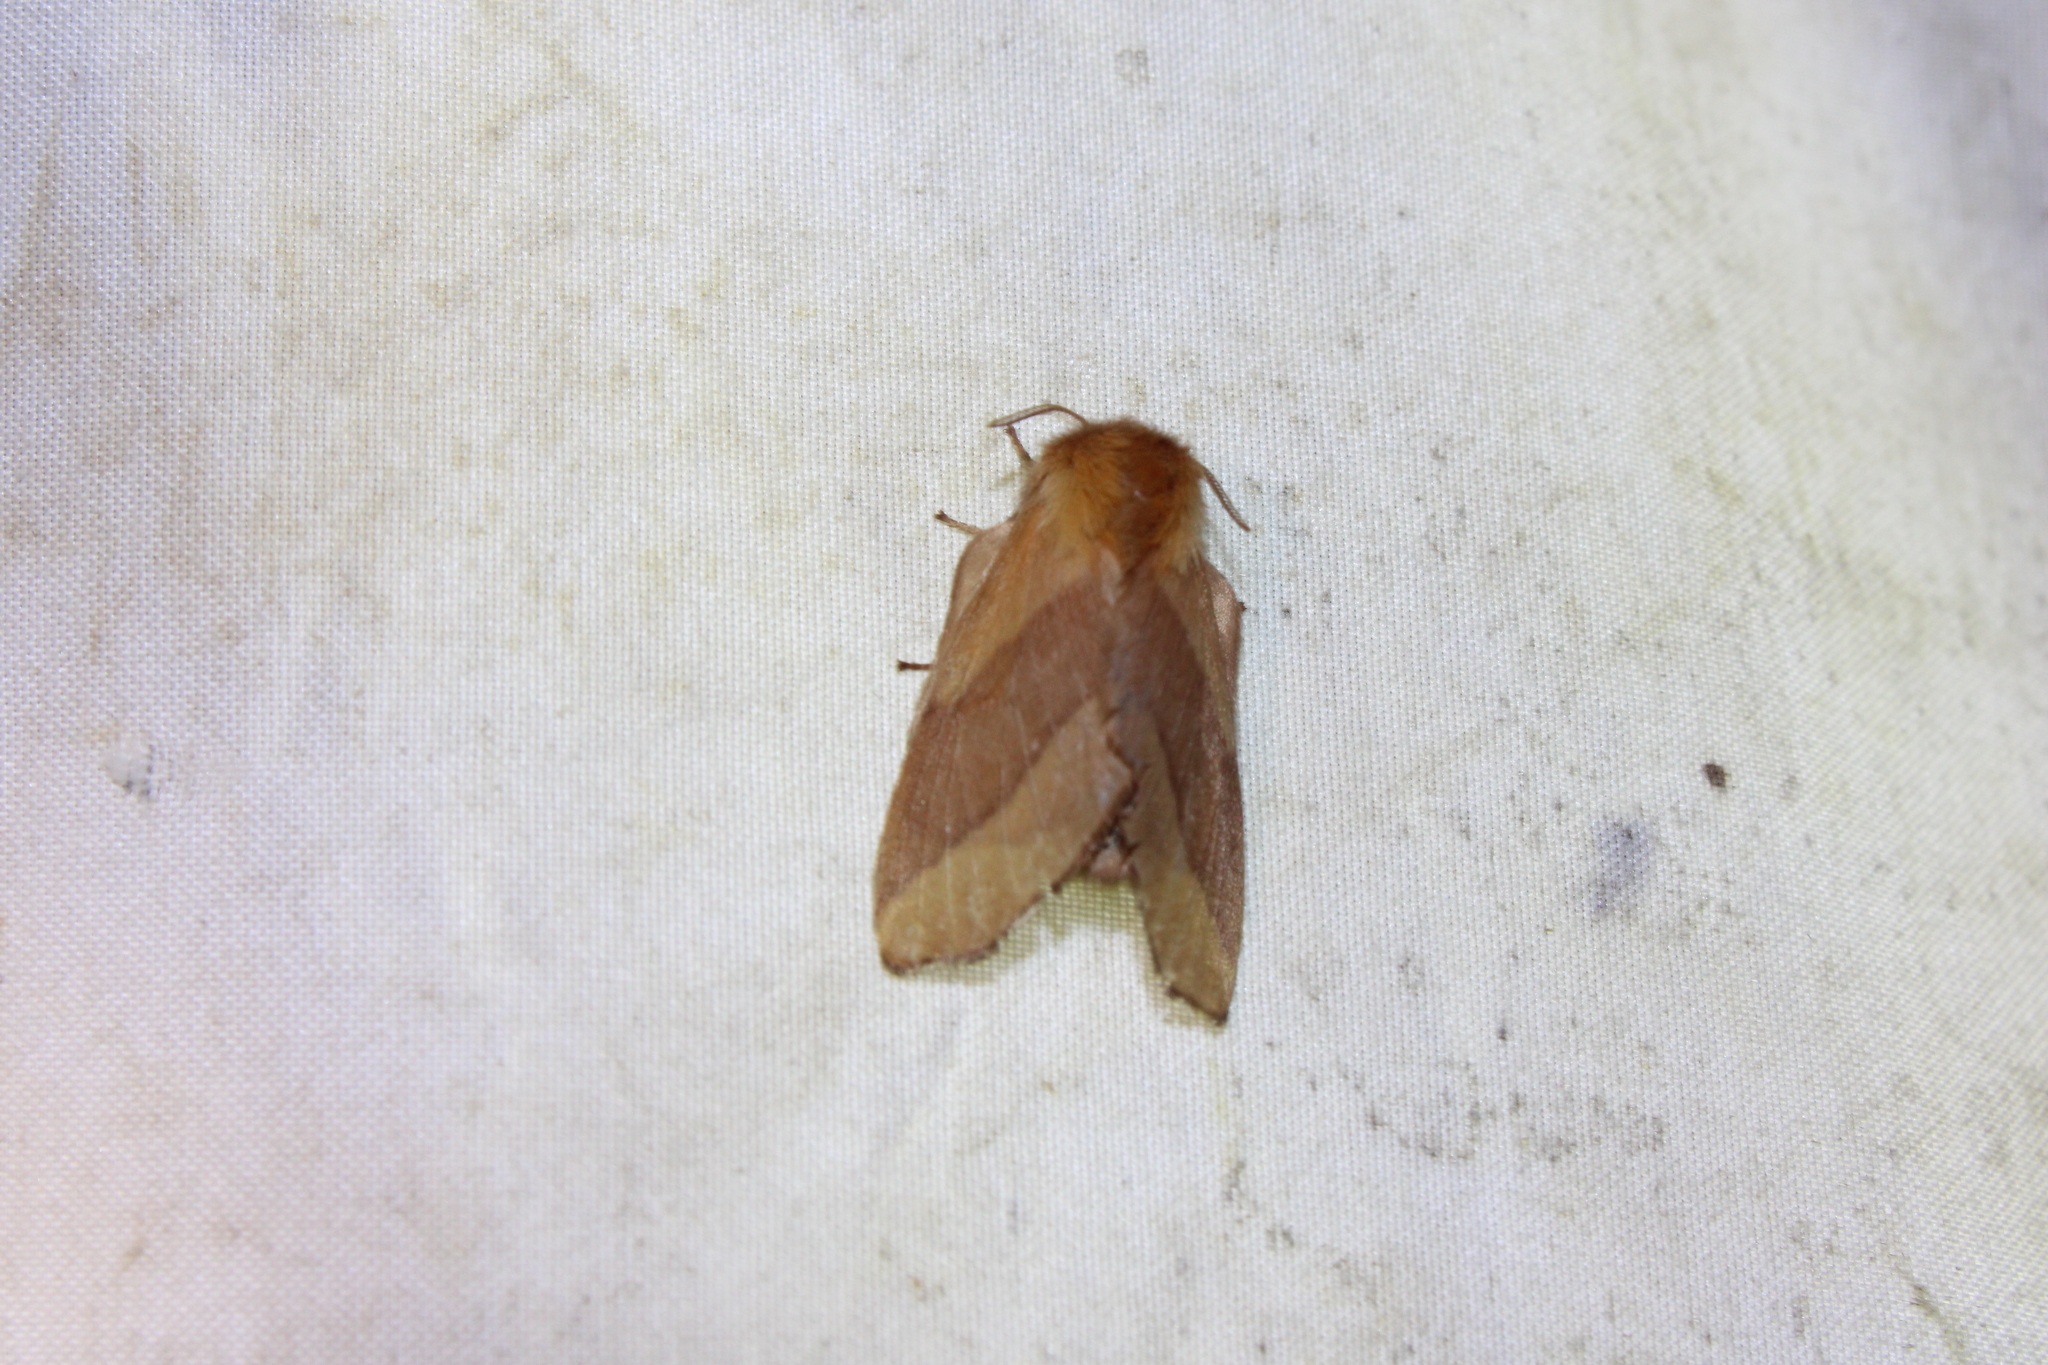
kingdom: Animalia
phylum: Arthropoda
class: Insecta
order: Lepidoptera
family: Lasiocampidae
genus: Malacosoma
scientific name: Malacosoma disstria
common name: Forest tent caterpillar
